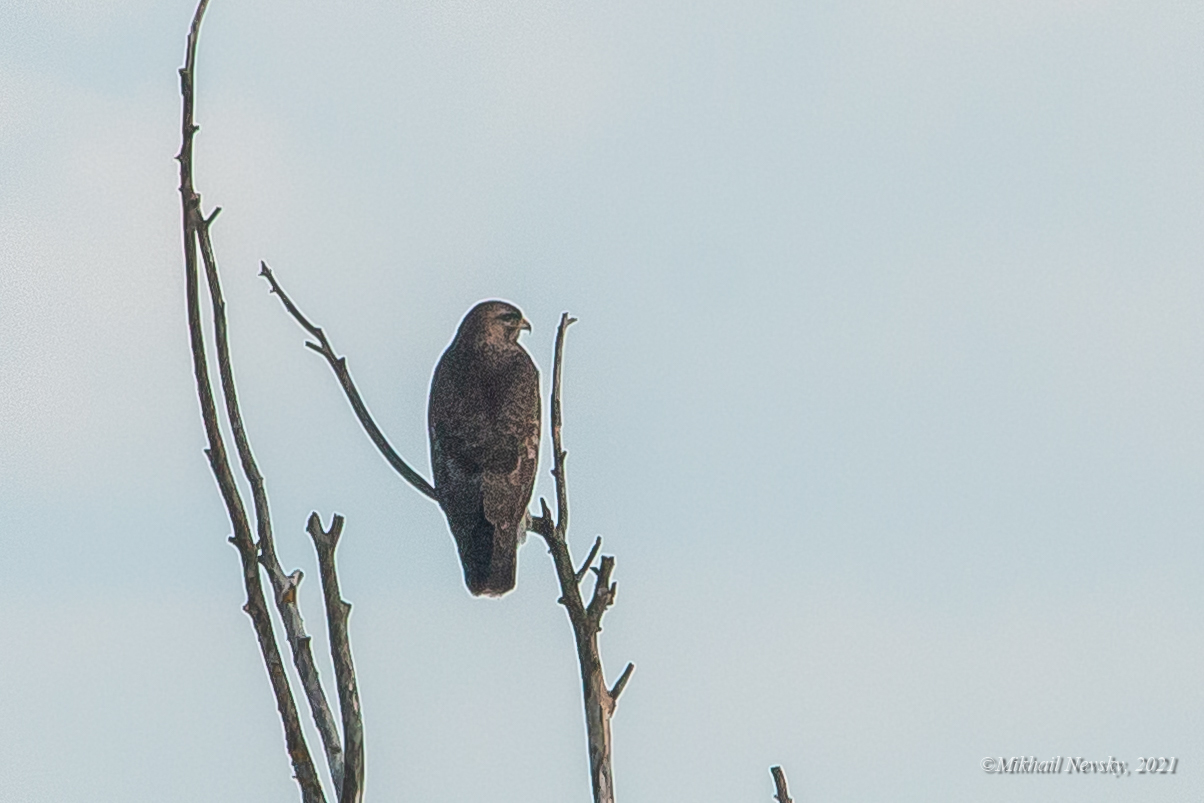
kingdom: Animalia
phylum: Chordata
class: Aves
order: Accipitriformes
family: Accipitridae
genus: Buteo
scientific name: Buteo buteo
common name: Common buzzard
